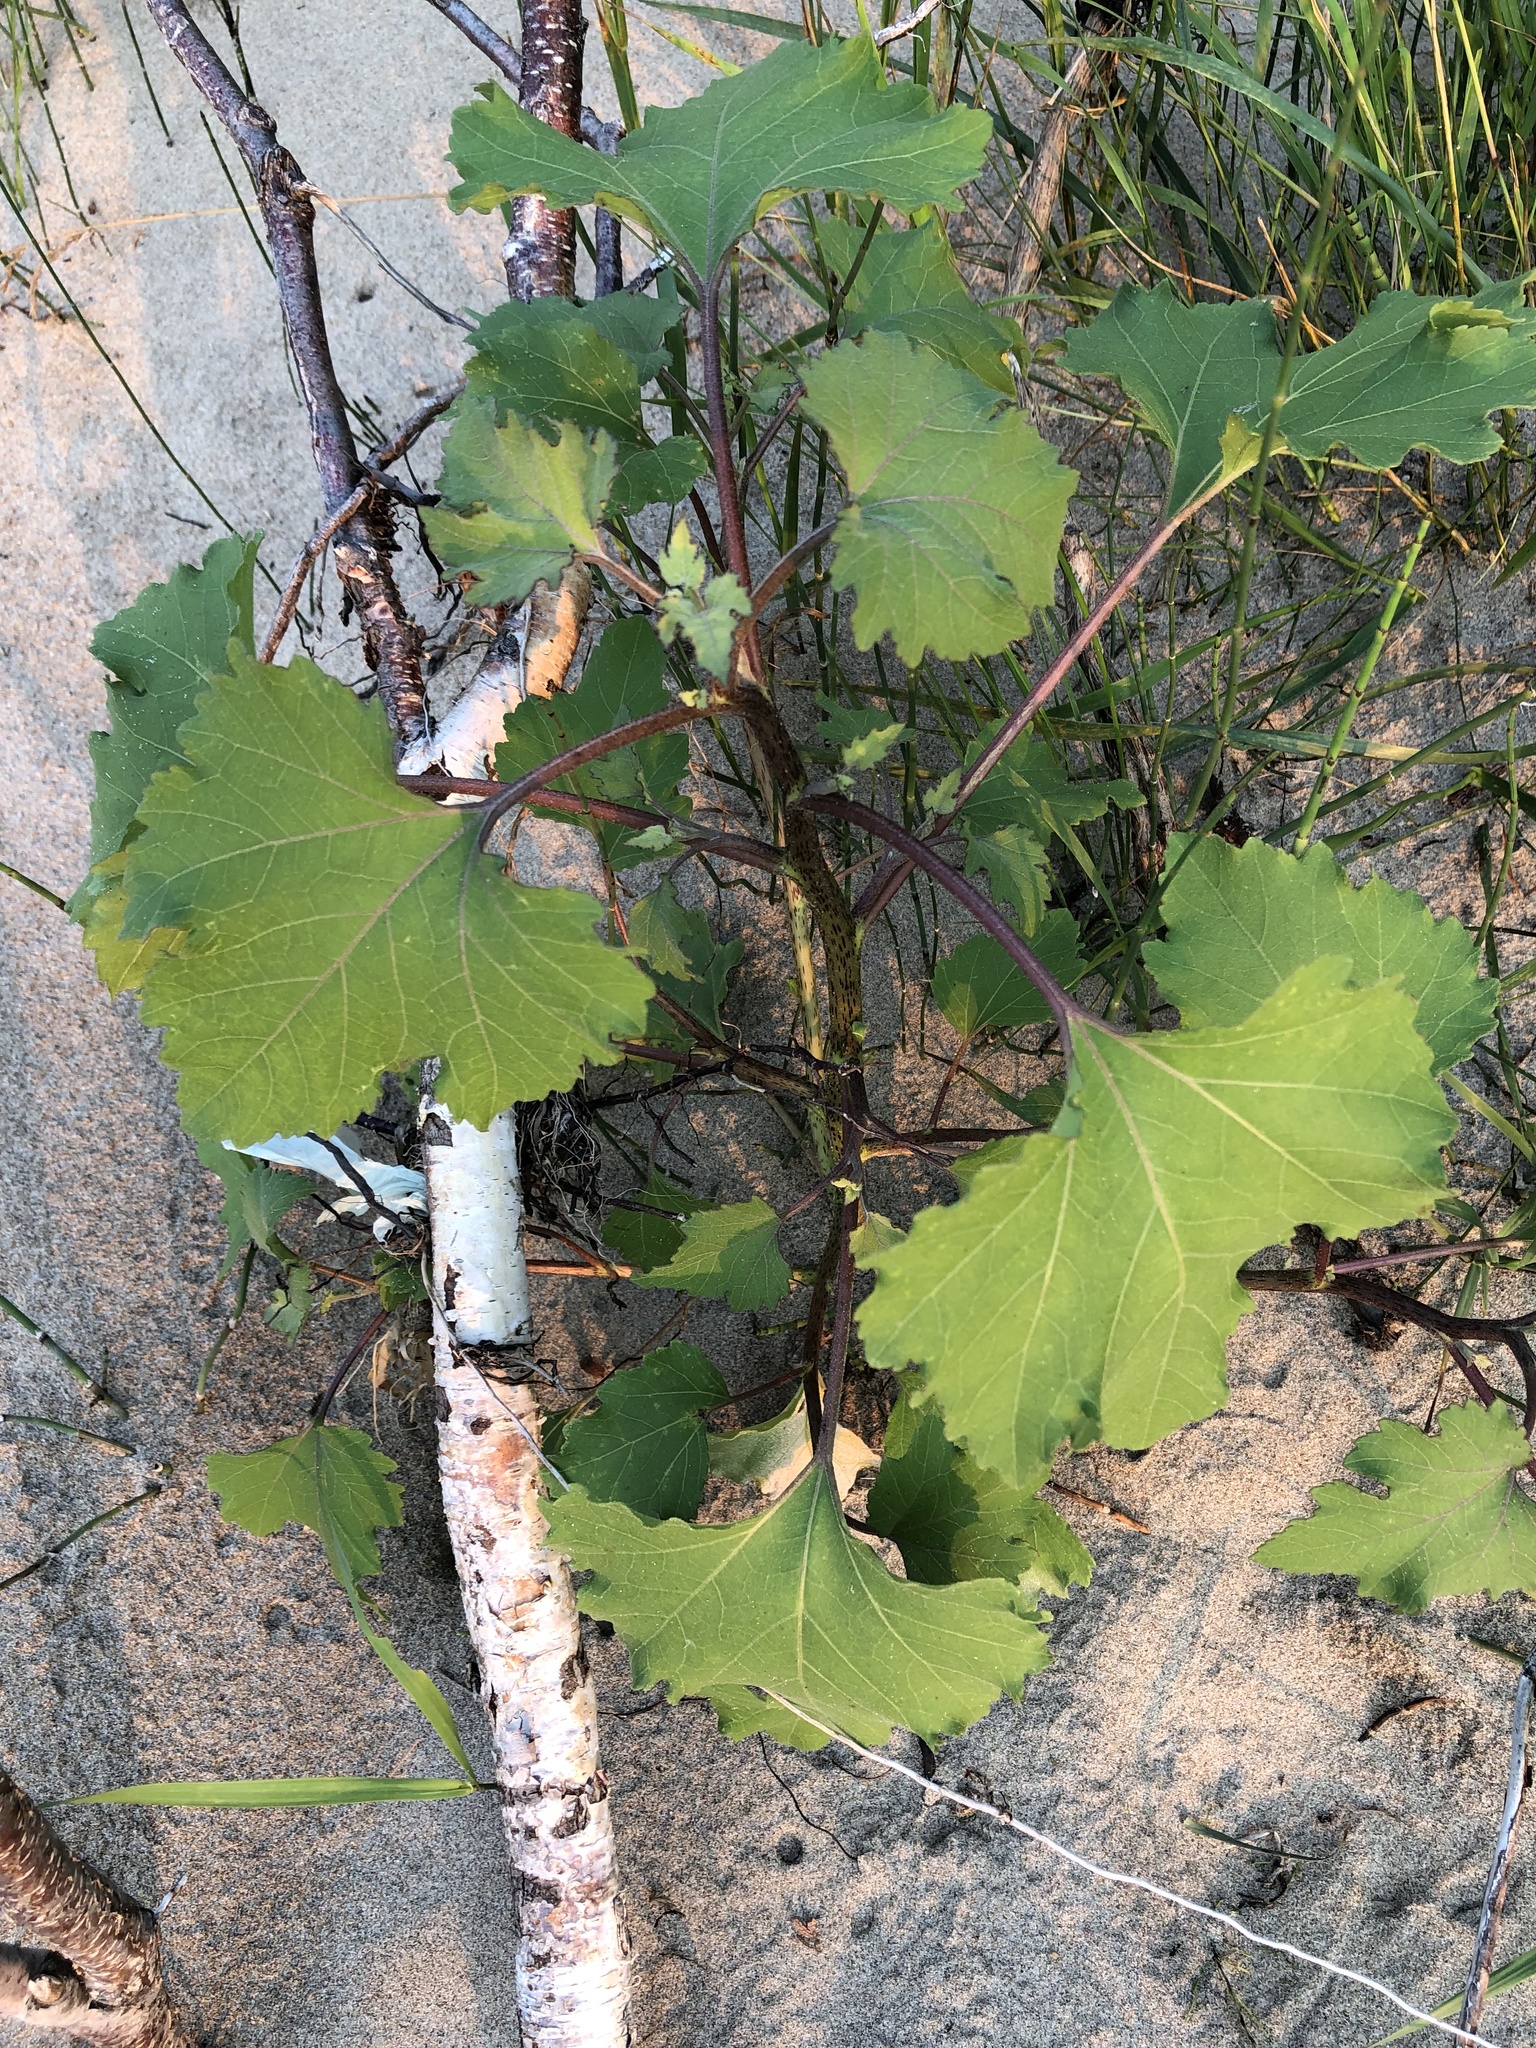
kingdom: Plantae
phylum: Tracheophyta
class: Magnoliopsida
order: Asterales
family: Asteraceae
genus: Xanthium
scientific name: Xanthium strumarium
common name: Rough cocklebur
